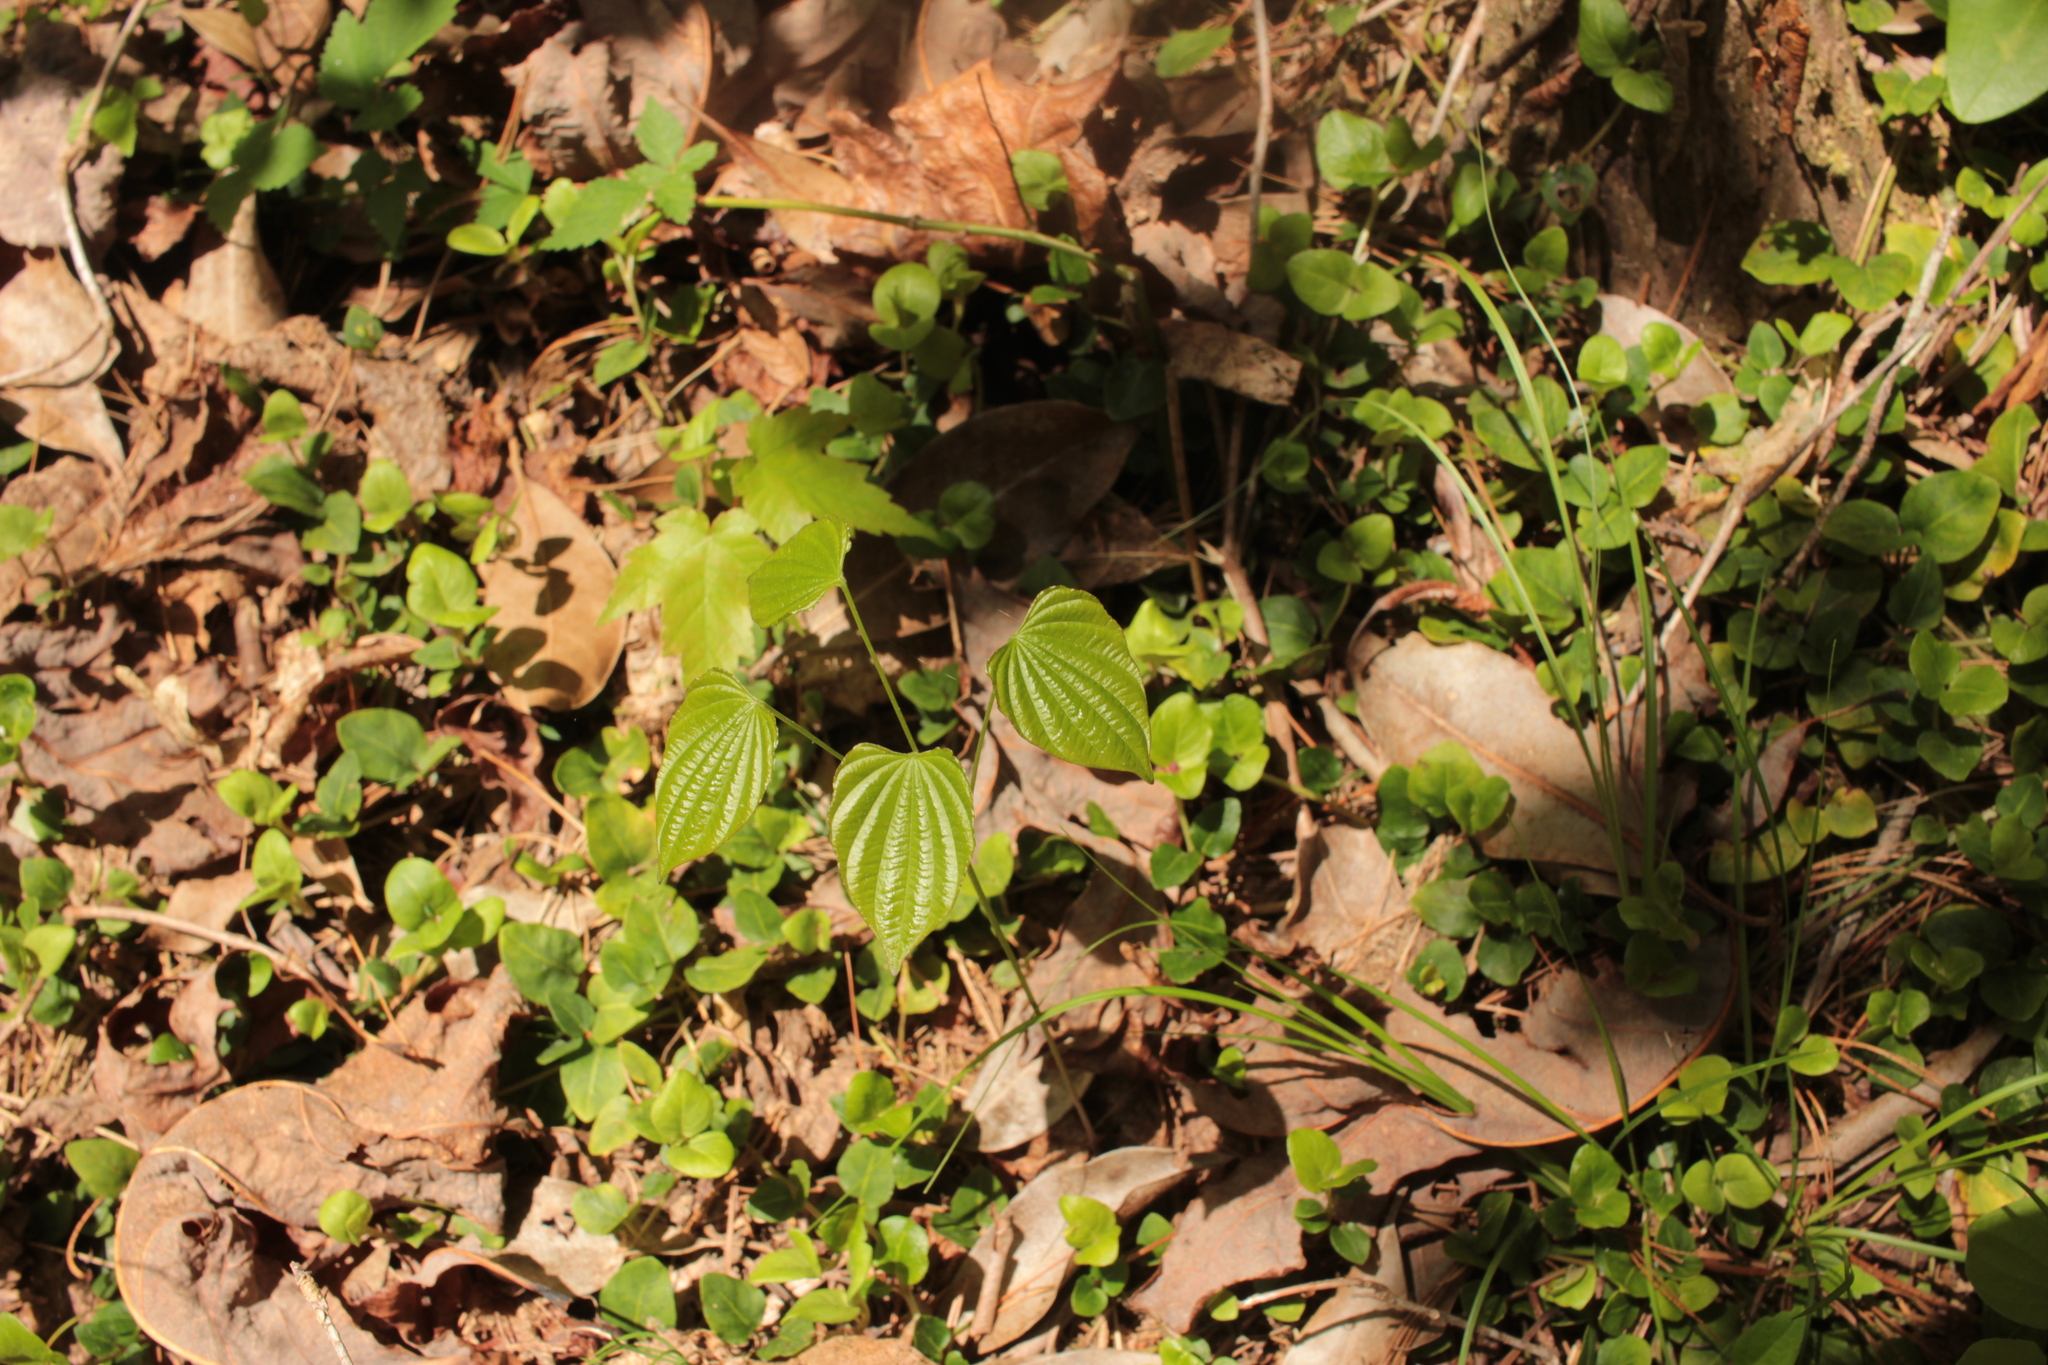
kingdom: Plantae
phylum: Tracheophyta
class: Liliopsida
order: Dioscoreales
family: Dioscoreaceae
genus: Dioscorea
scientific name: Dioscorea villosa
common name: Wild yam
